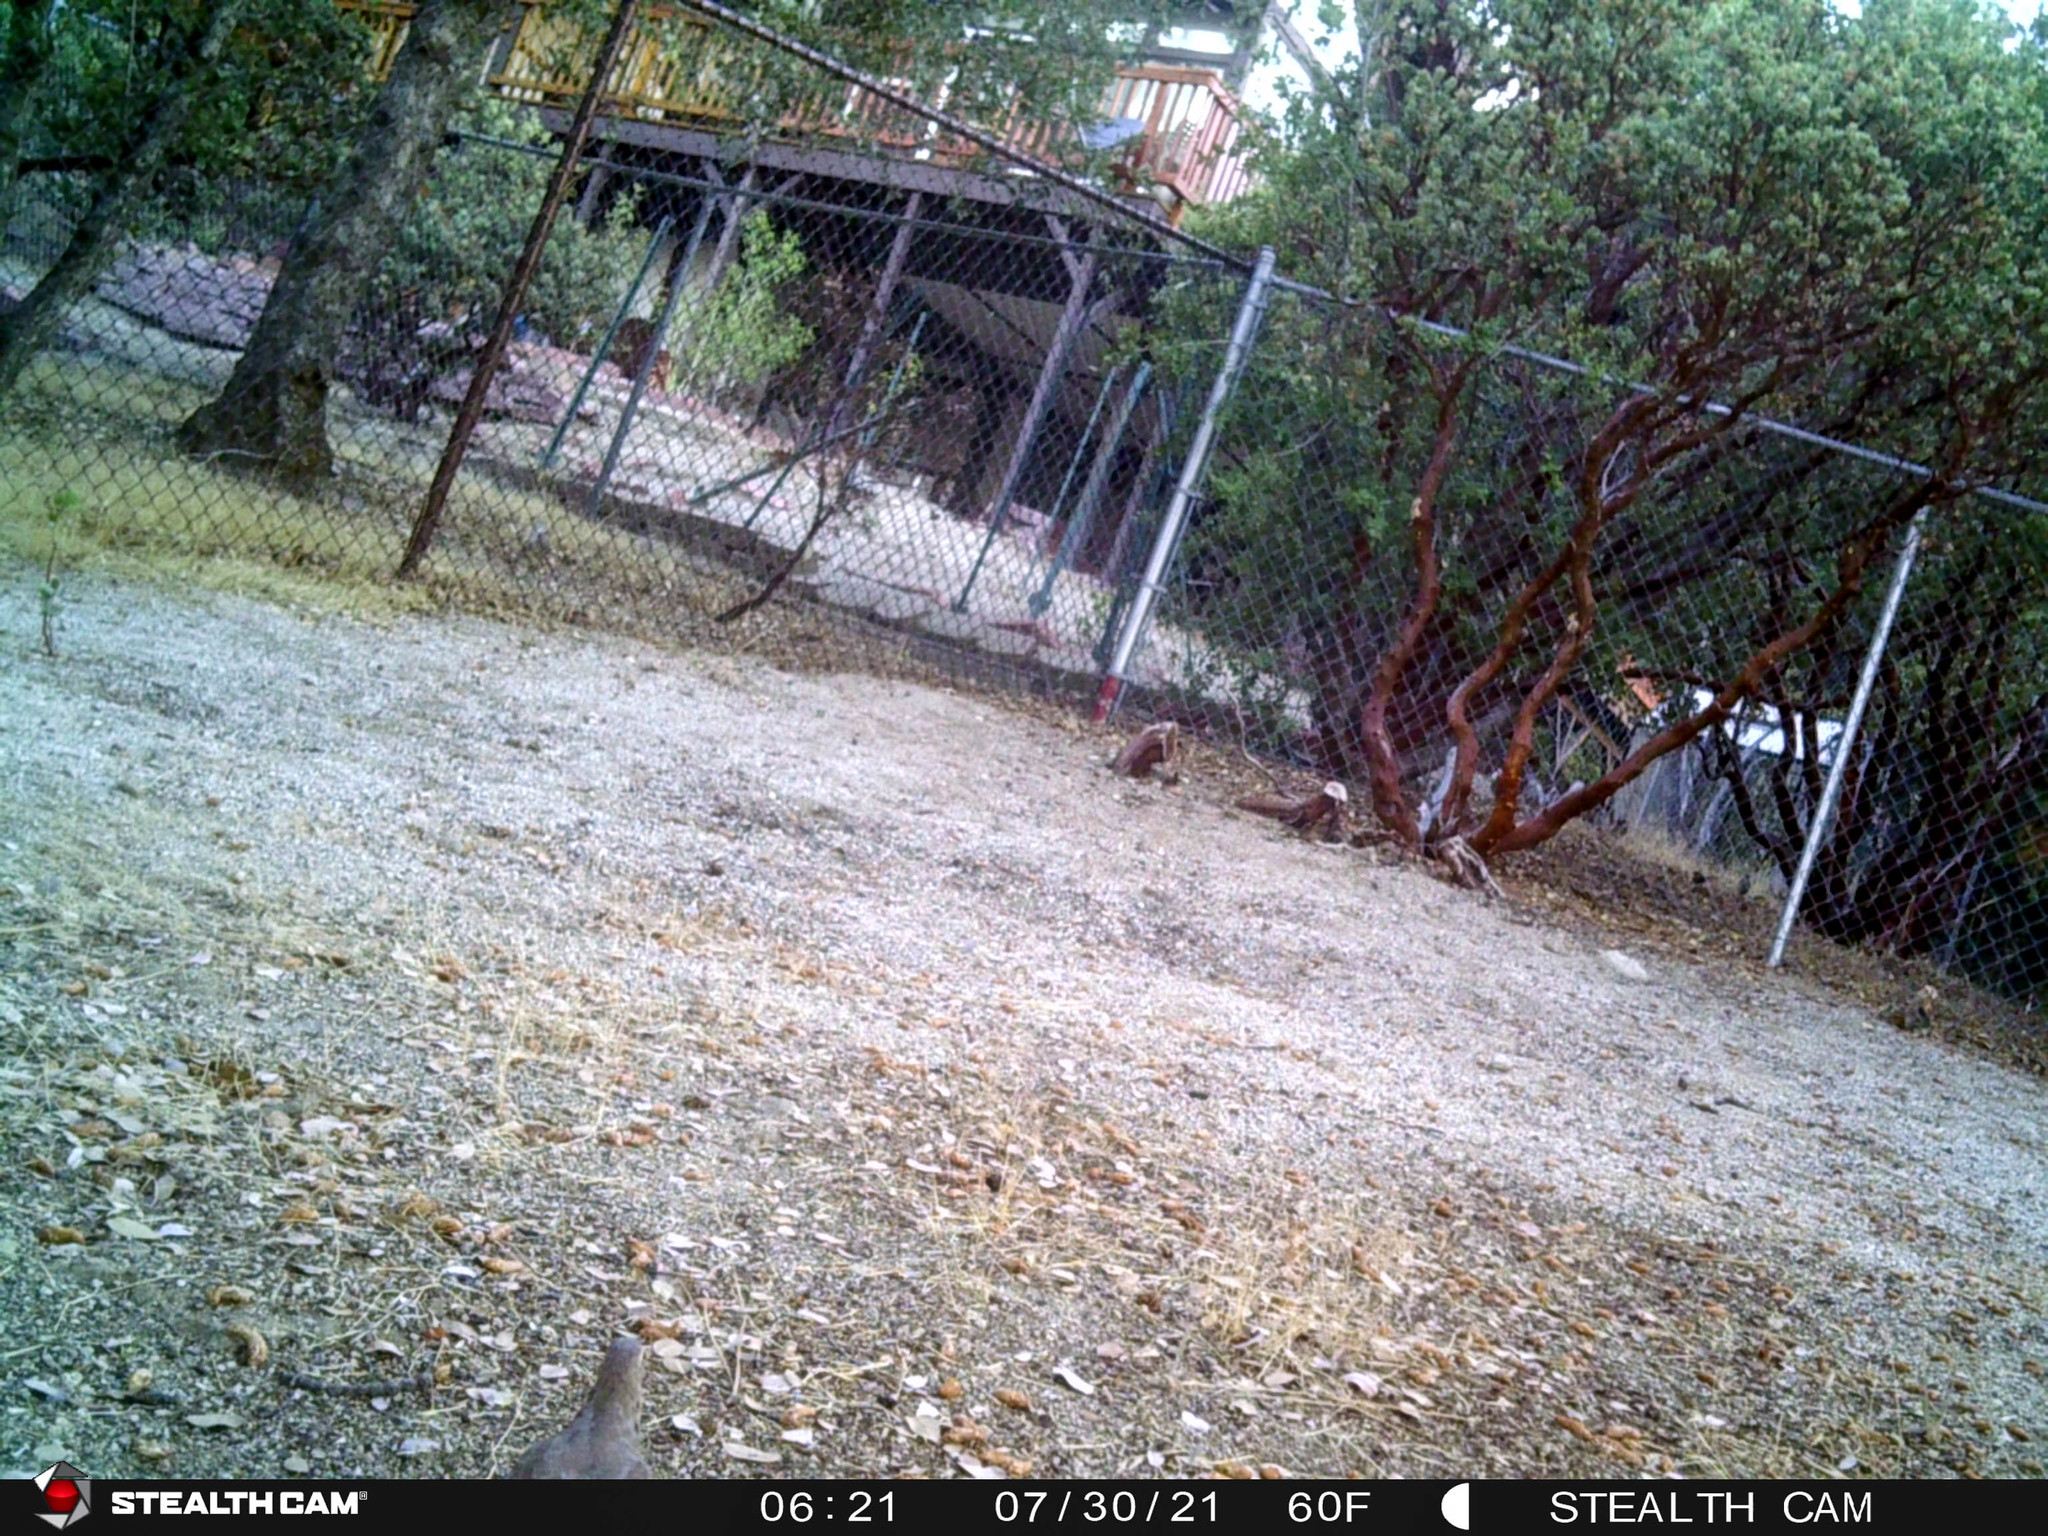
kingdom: Animalia
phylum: Chordata
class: Aves
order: Columbiformes
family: Columbidae
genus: Zenaida
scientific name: Zenaida macroura
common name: Mourning dove
